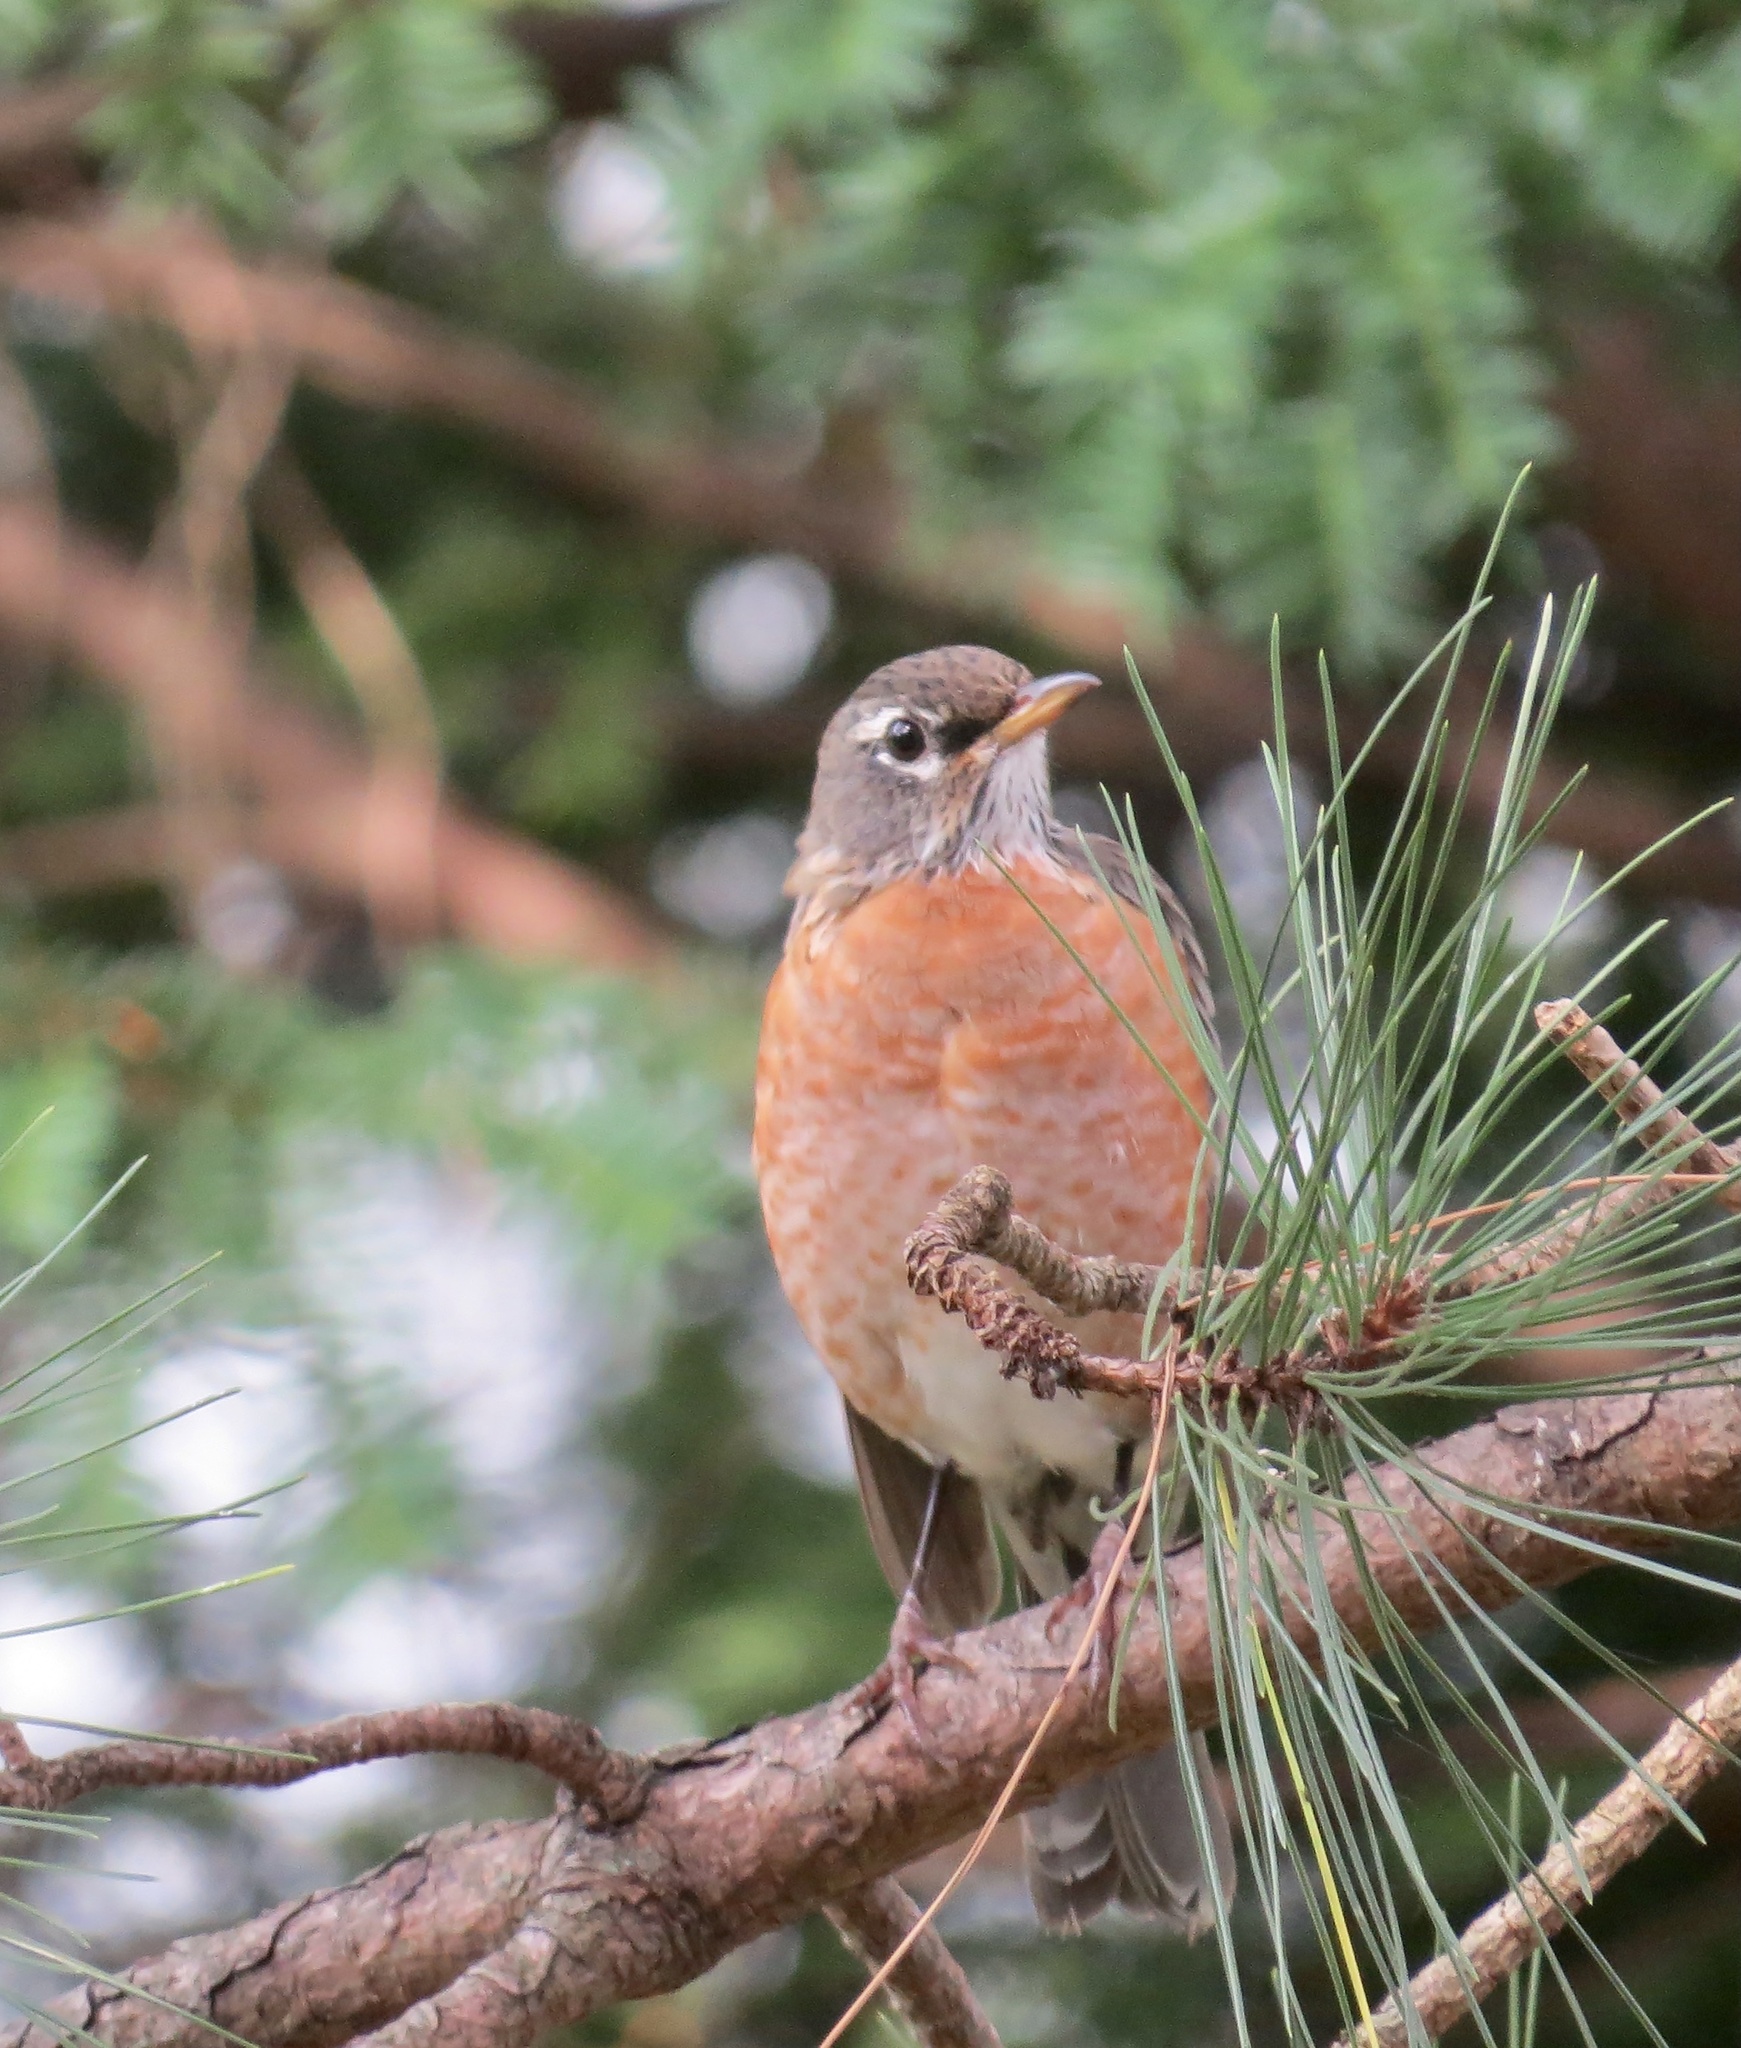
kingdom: Animalia
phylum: Chordata
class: Aves
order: Passeriformes
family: Turdidae
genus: Turdus
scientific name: Turdus migratorius
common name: American robin
